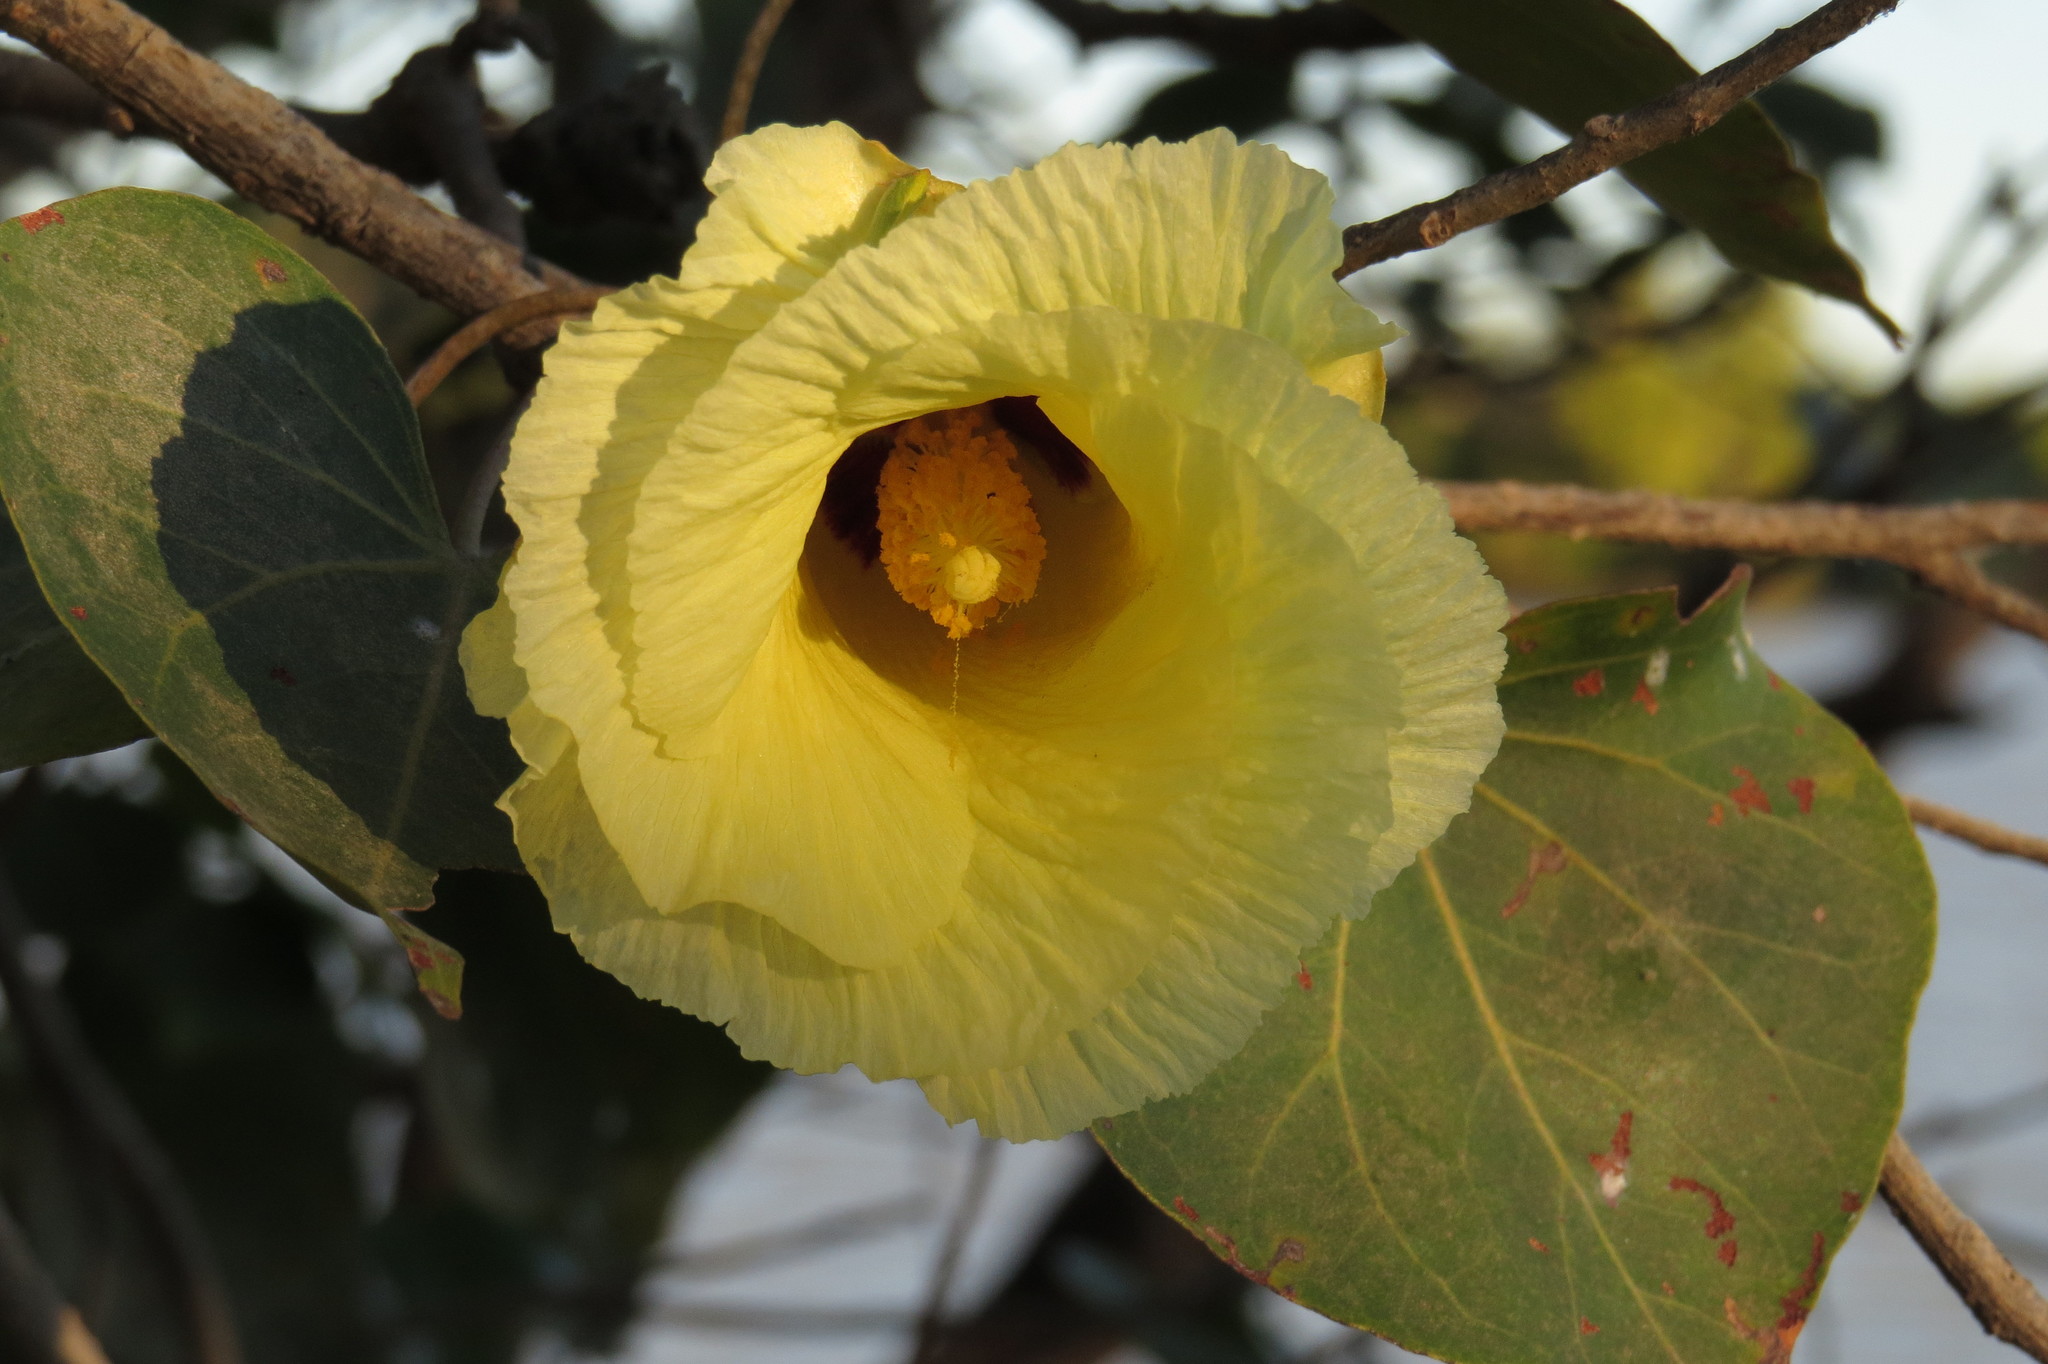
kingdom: Plantae
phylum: Tracheophyta
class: Magnoliopsida
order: Malvales
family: Malvaceae
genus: Thespesia
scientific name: Thespesia populneoides
